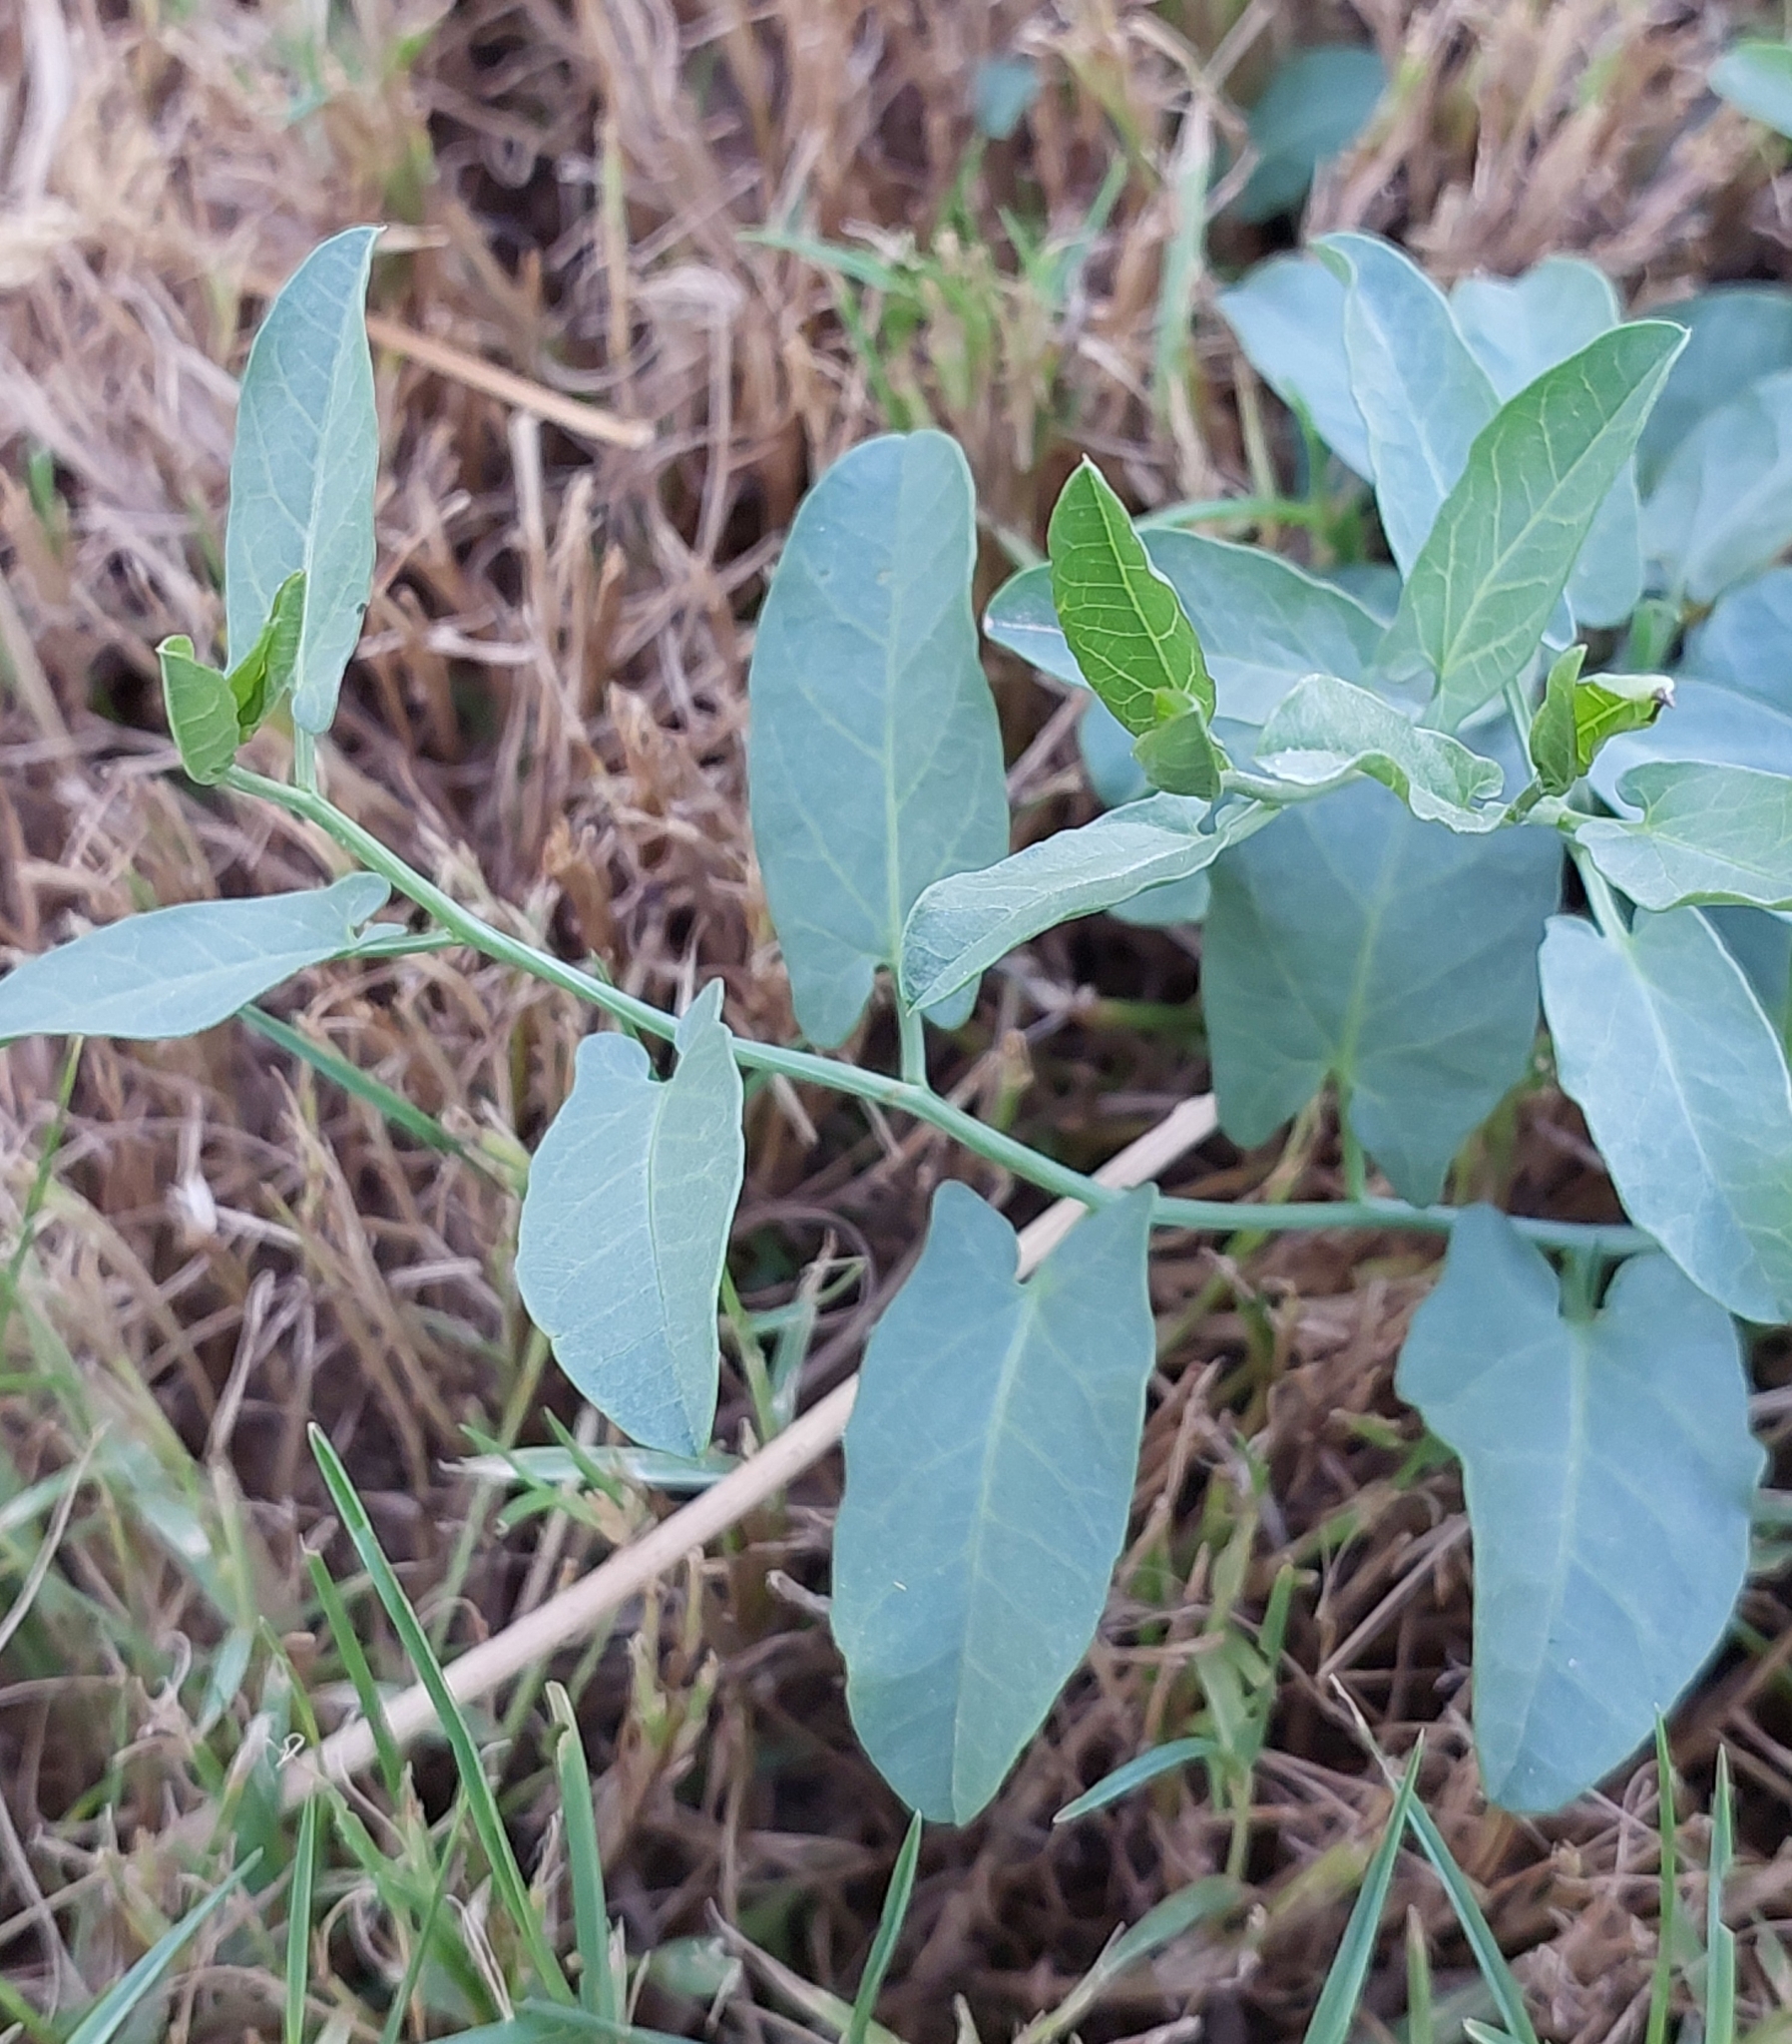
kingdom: Plantae
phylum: Tracheophyta
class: Magnoliopsida
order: Solanales
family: Convolvulaceae
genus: Convolvulus
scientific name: Convolvulus arvensis
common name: Field bindweed
